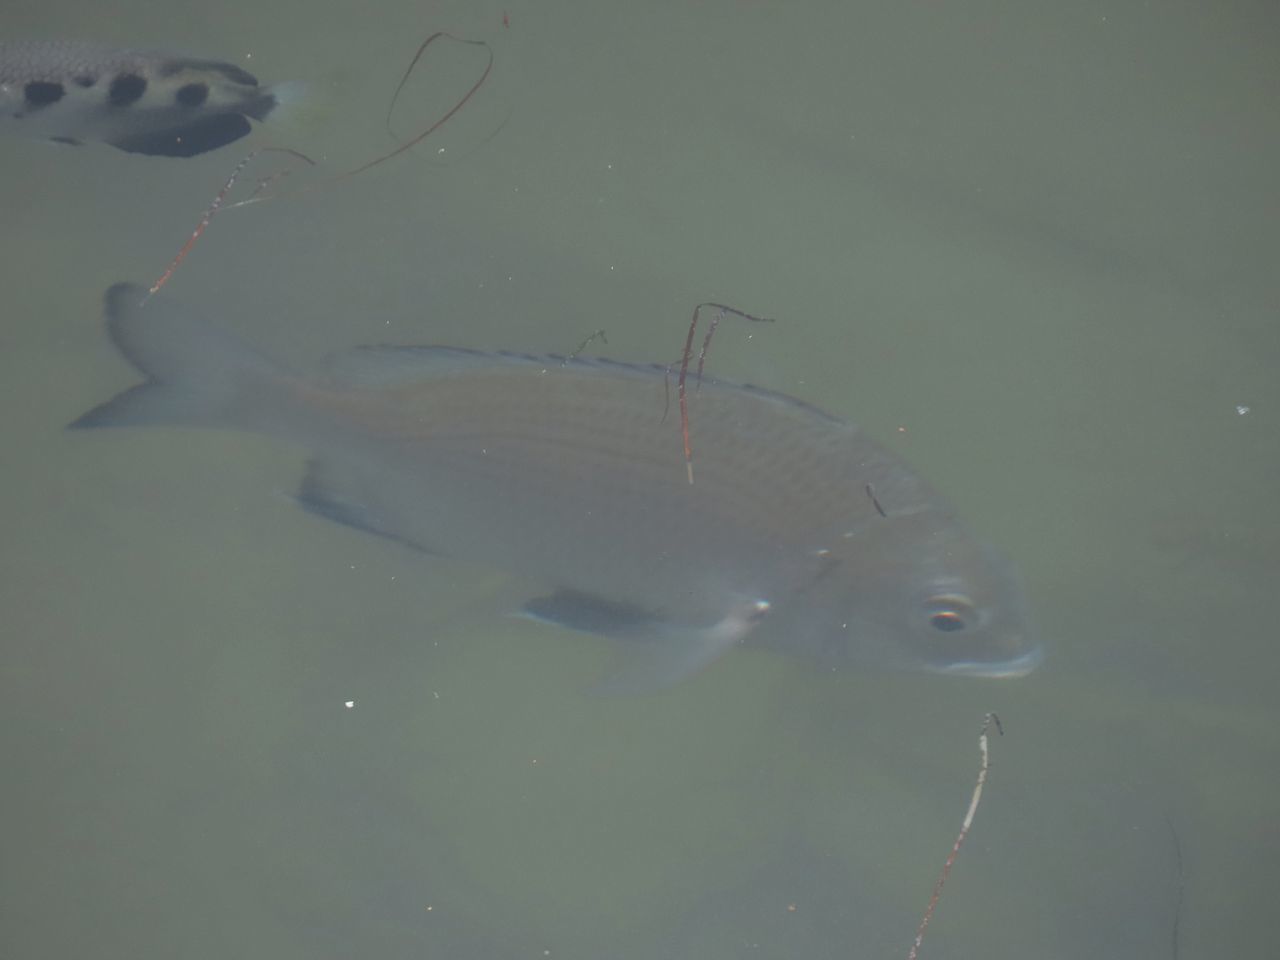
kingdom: Animalia
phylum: Chordata
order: Perciformes
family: Sparidae
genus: Acanthopagrus
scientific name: Acanthopagrus pacificus
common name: Pacific seabream
